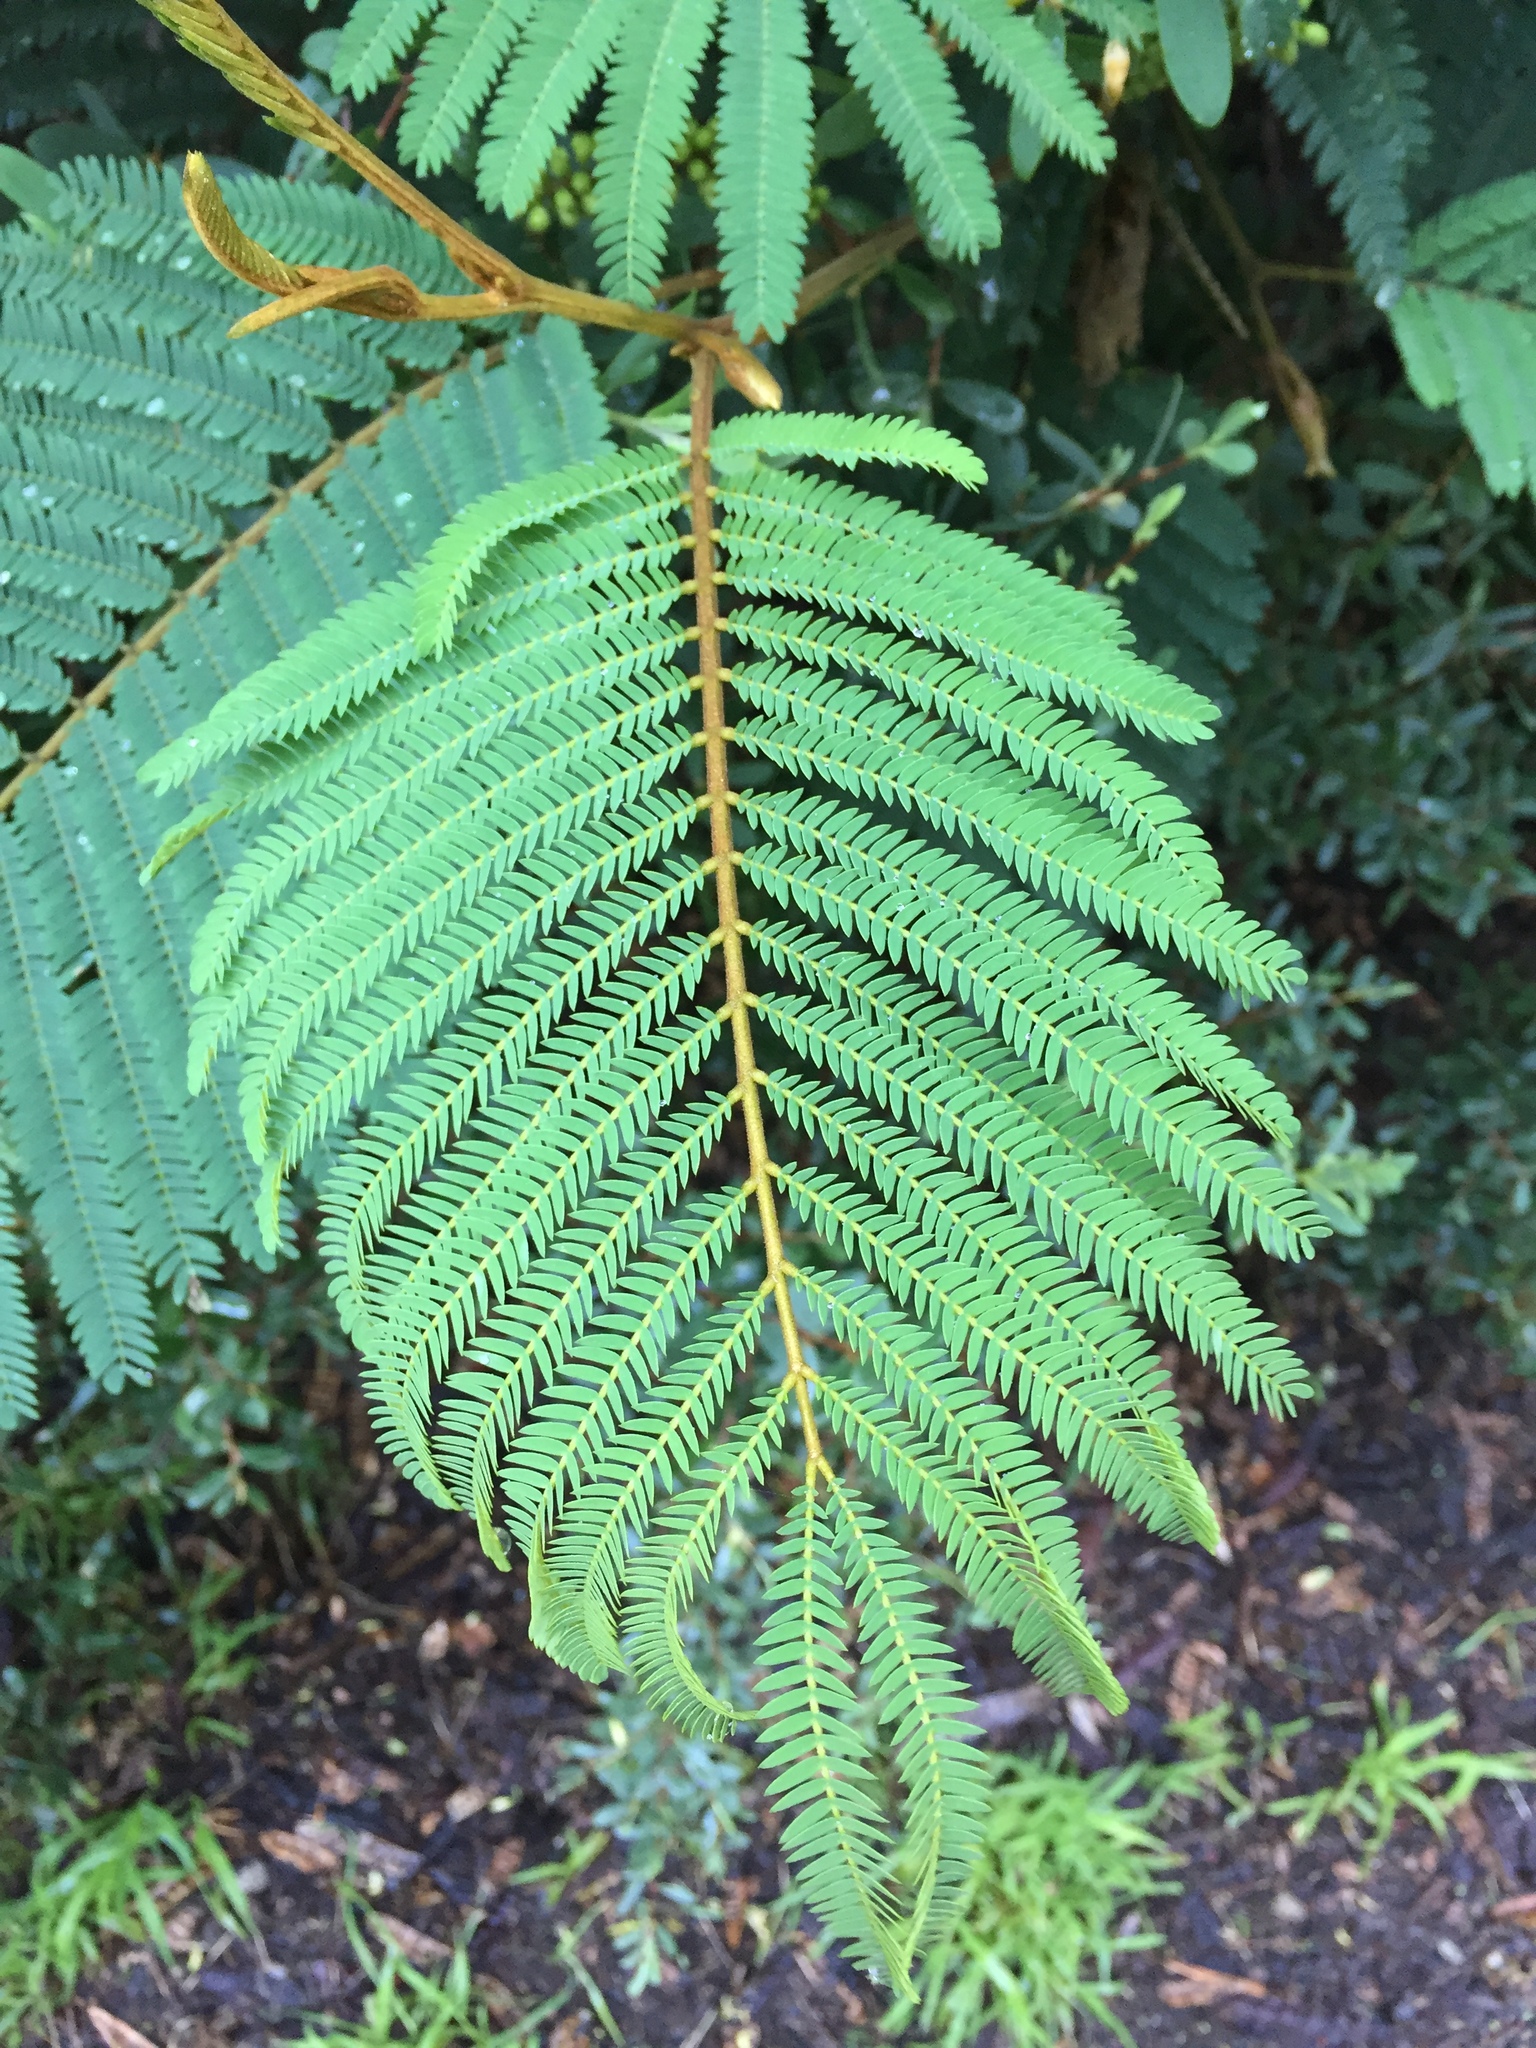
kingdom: Plantae
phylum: Tracheophyta
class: Magnoliopsida
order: Fabales
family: Fabaceae
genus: Paraserianthes
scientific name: Paraserianthes lophantha
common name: Plume albizia
